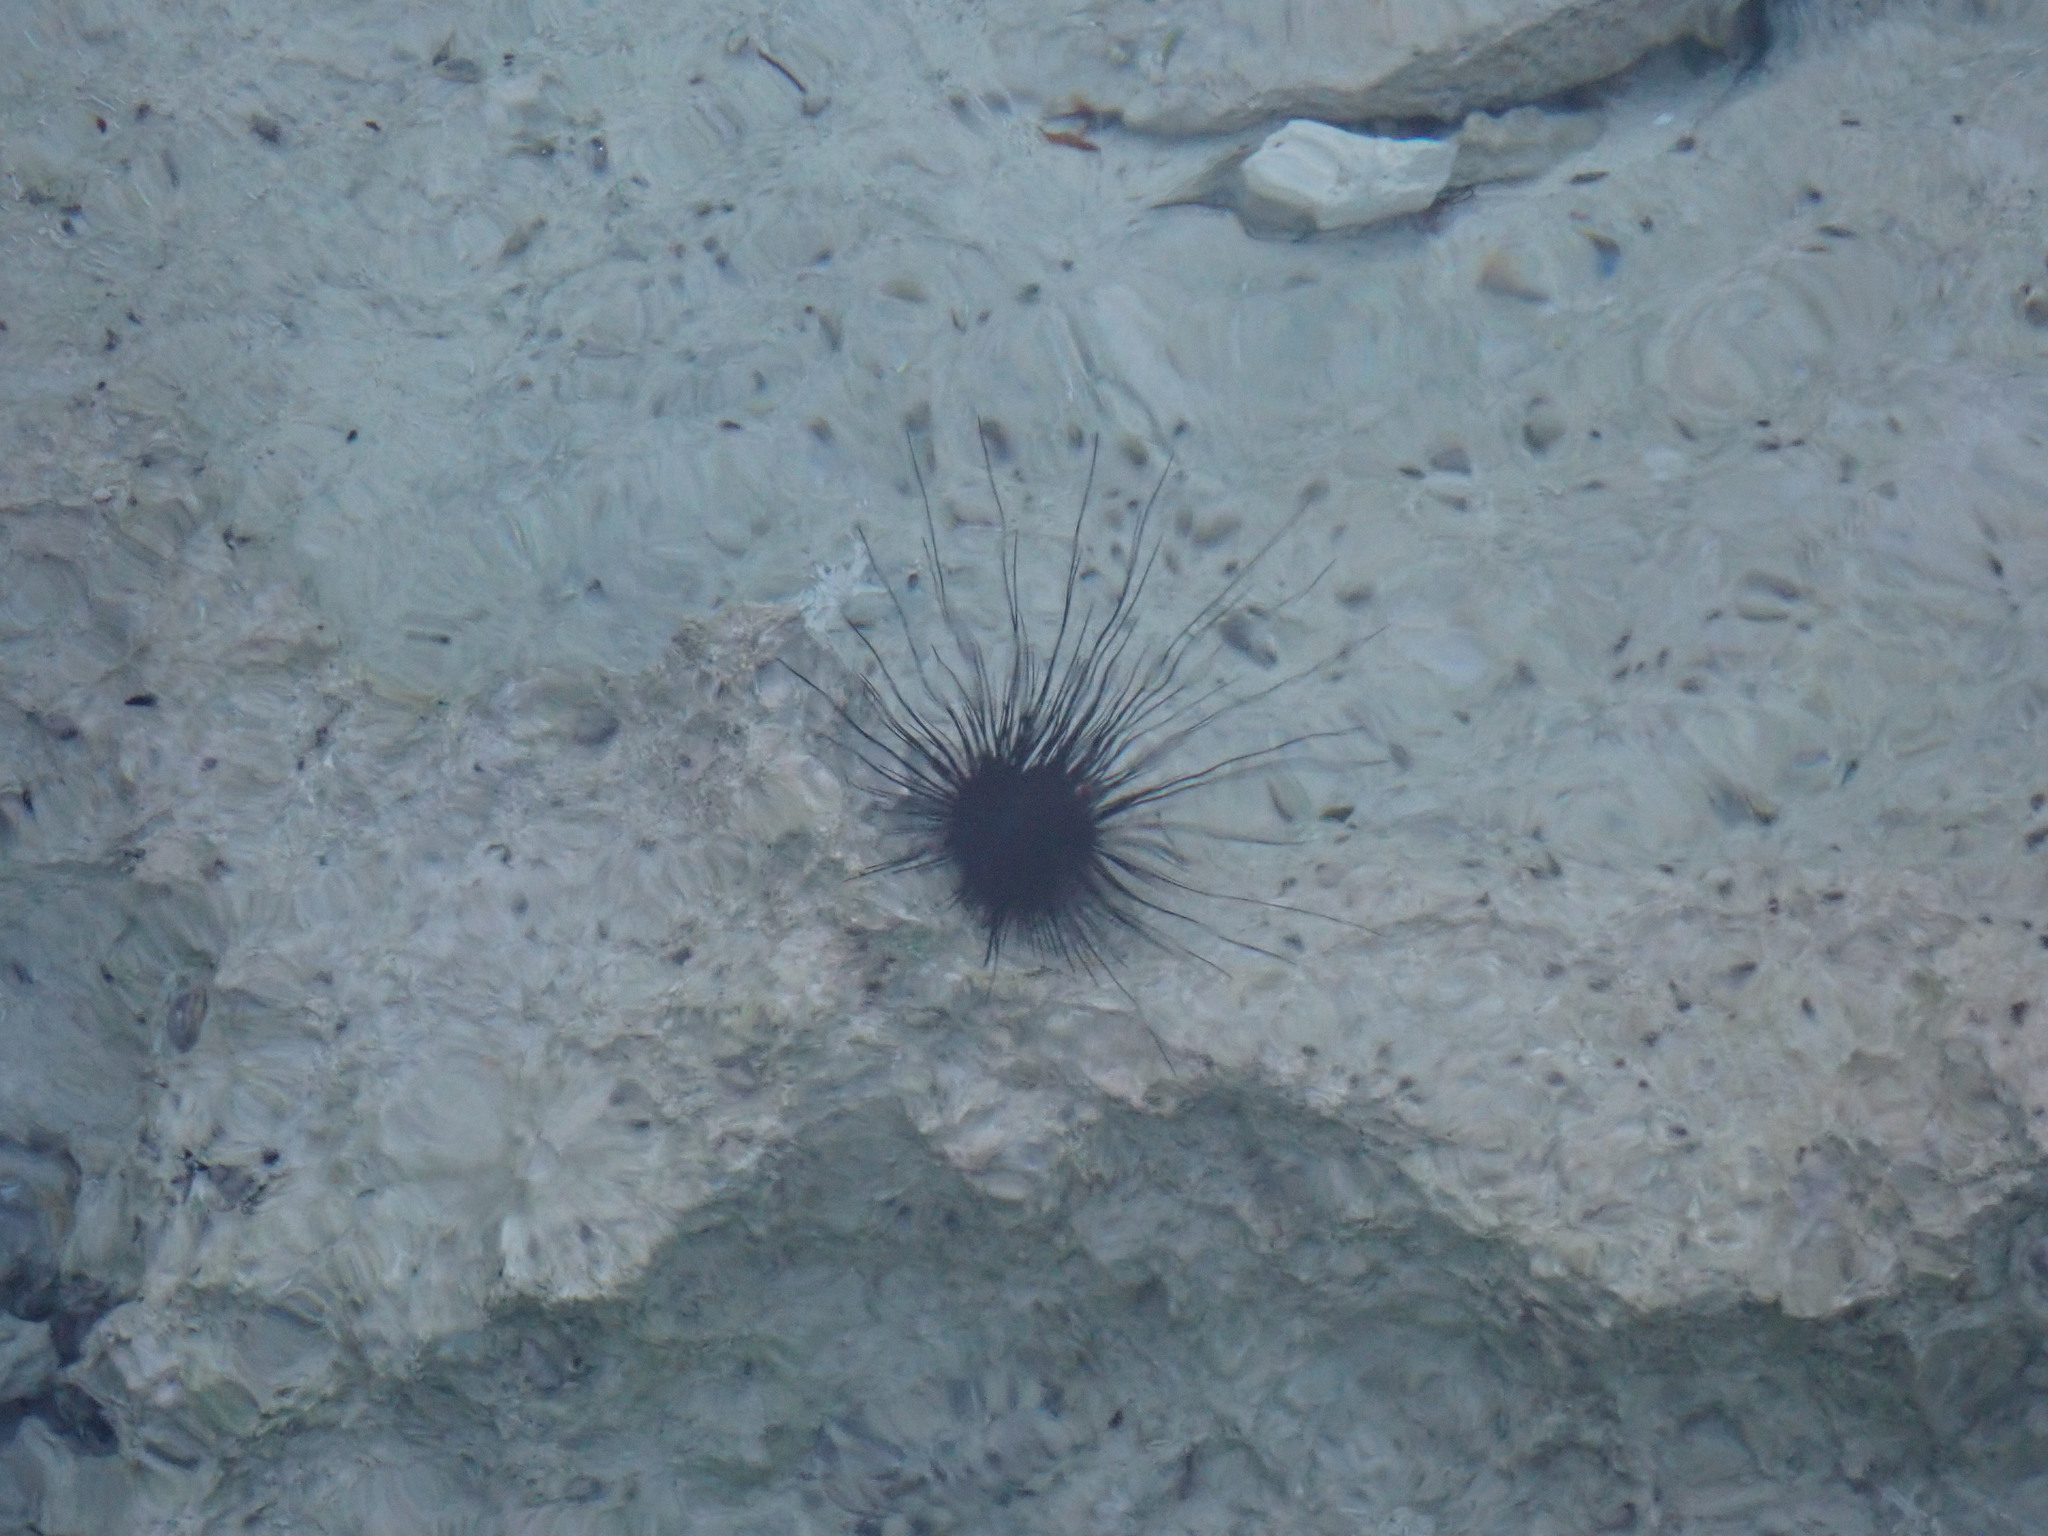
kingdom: Animalia
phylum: Echinodermata
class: Echinoidea
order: Diadematoida
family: Diadematidae
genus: Diadema
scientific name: Diadema antillarum
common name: Spiny urchin
